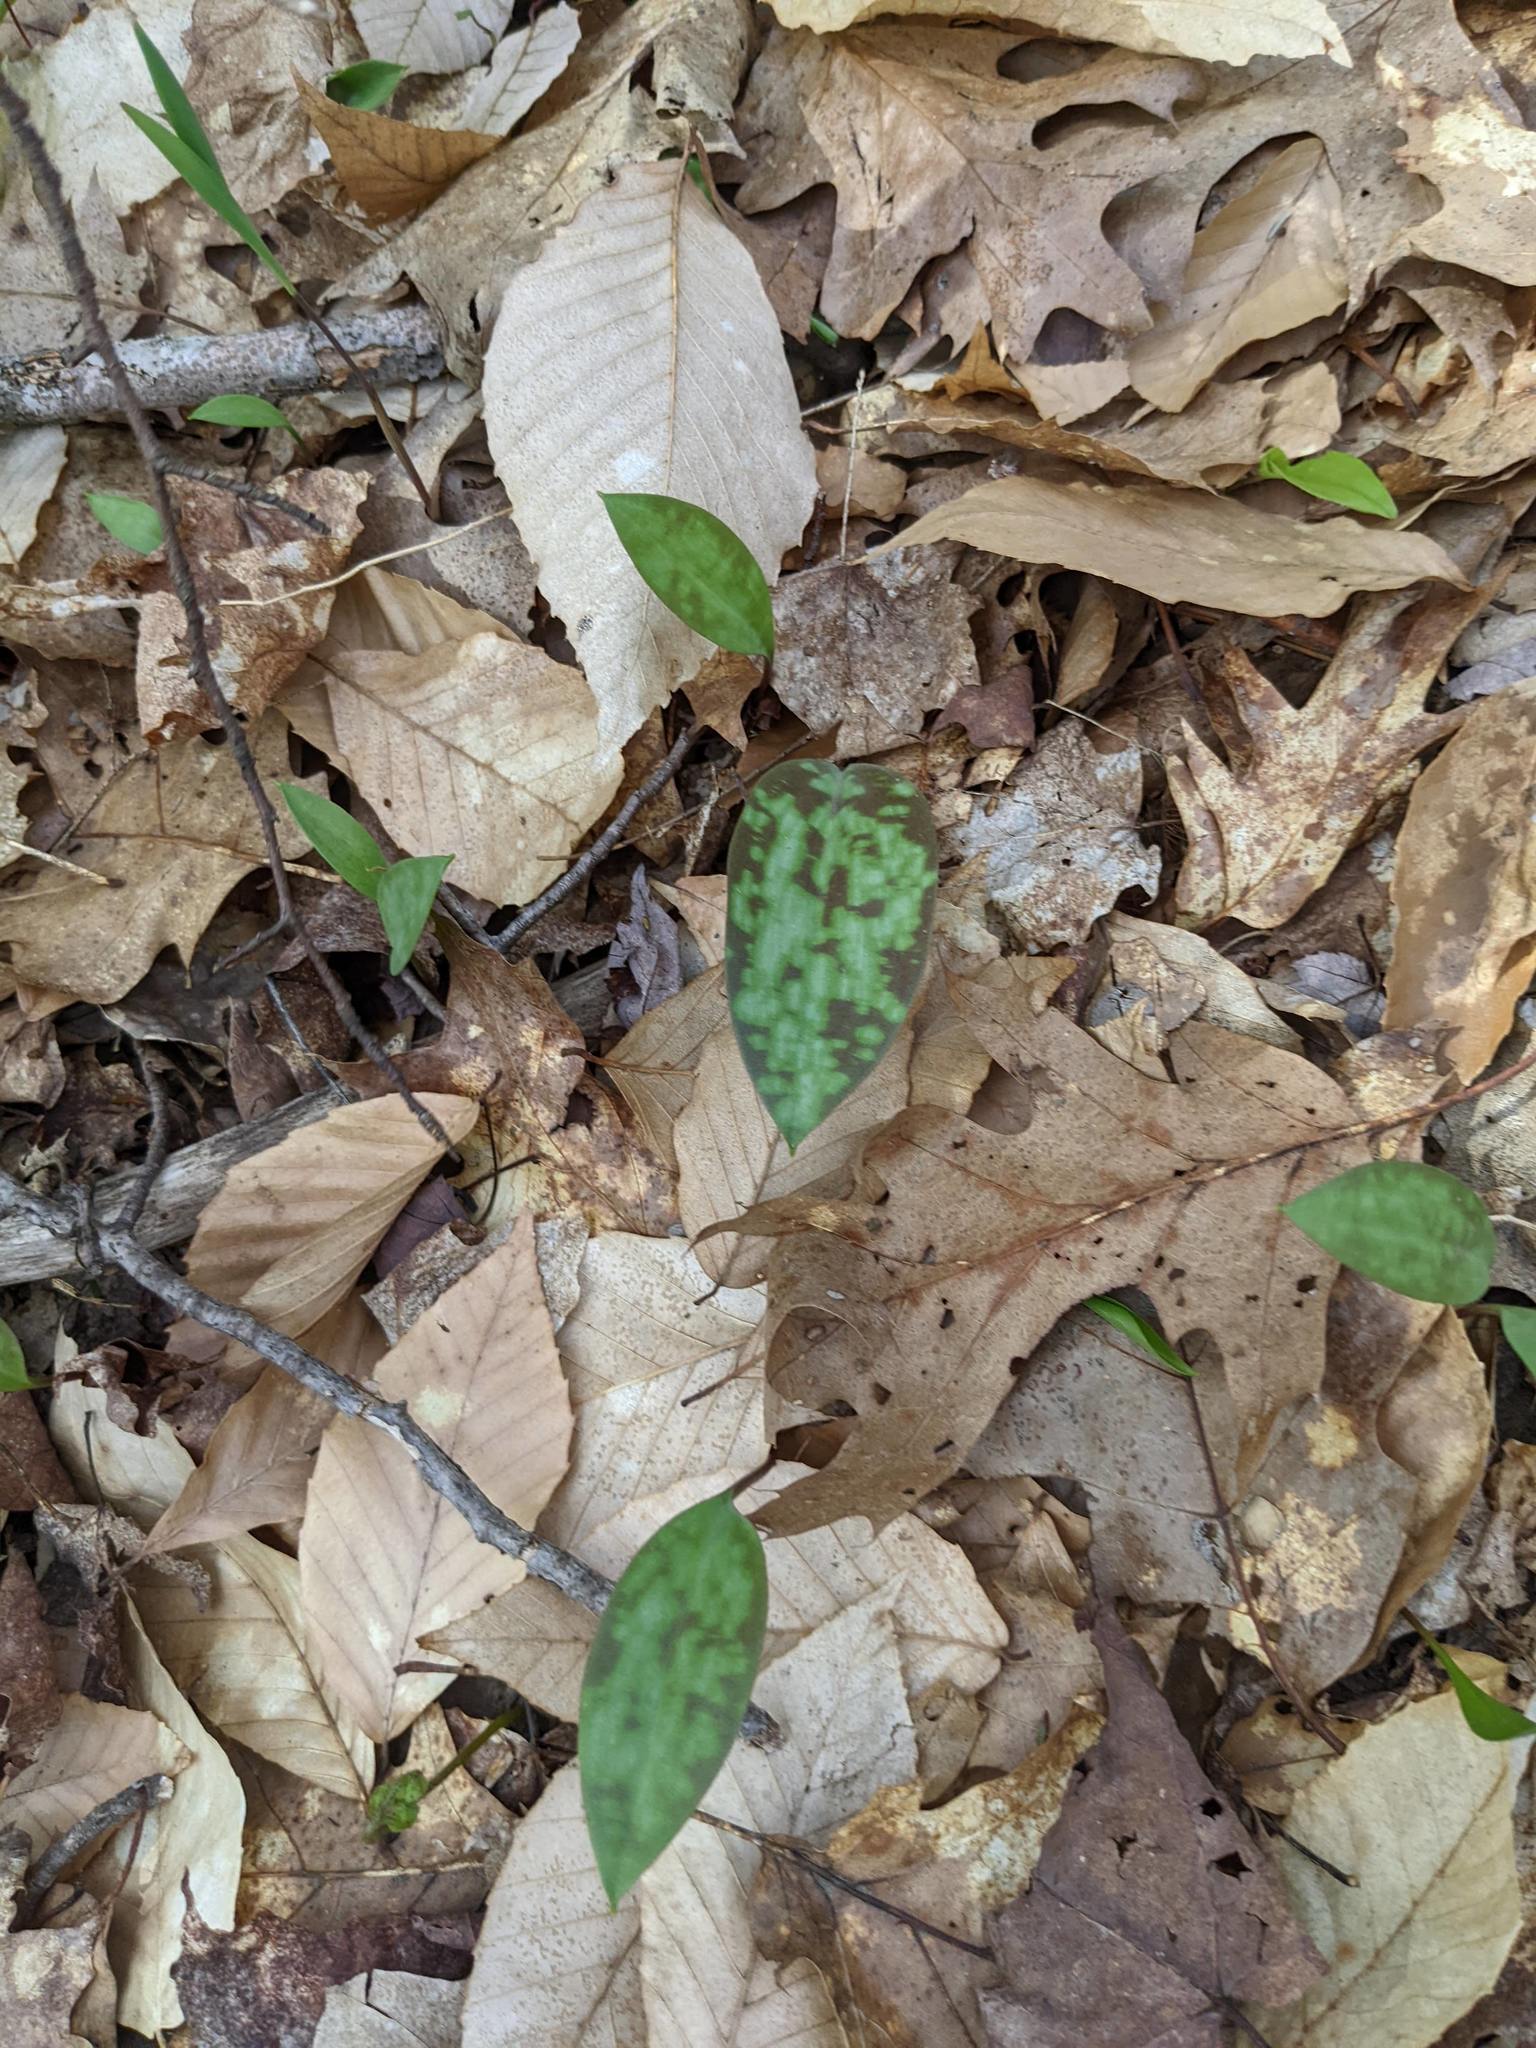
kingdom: Plantae
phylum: Tracheophyta
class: Liliopsida
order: Liliales
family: Liliaceae
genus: Erythronium
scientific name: Erythronium americanum
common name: Yellow adder's-tongue
